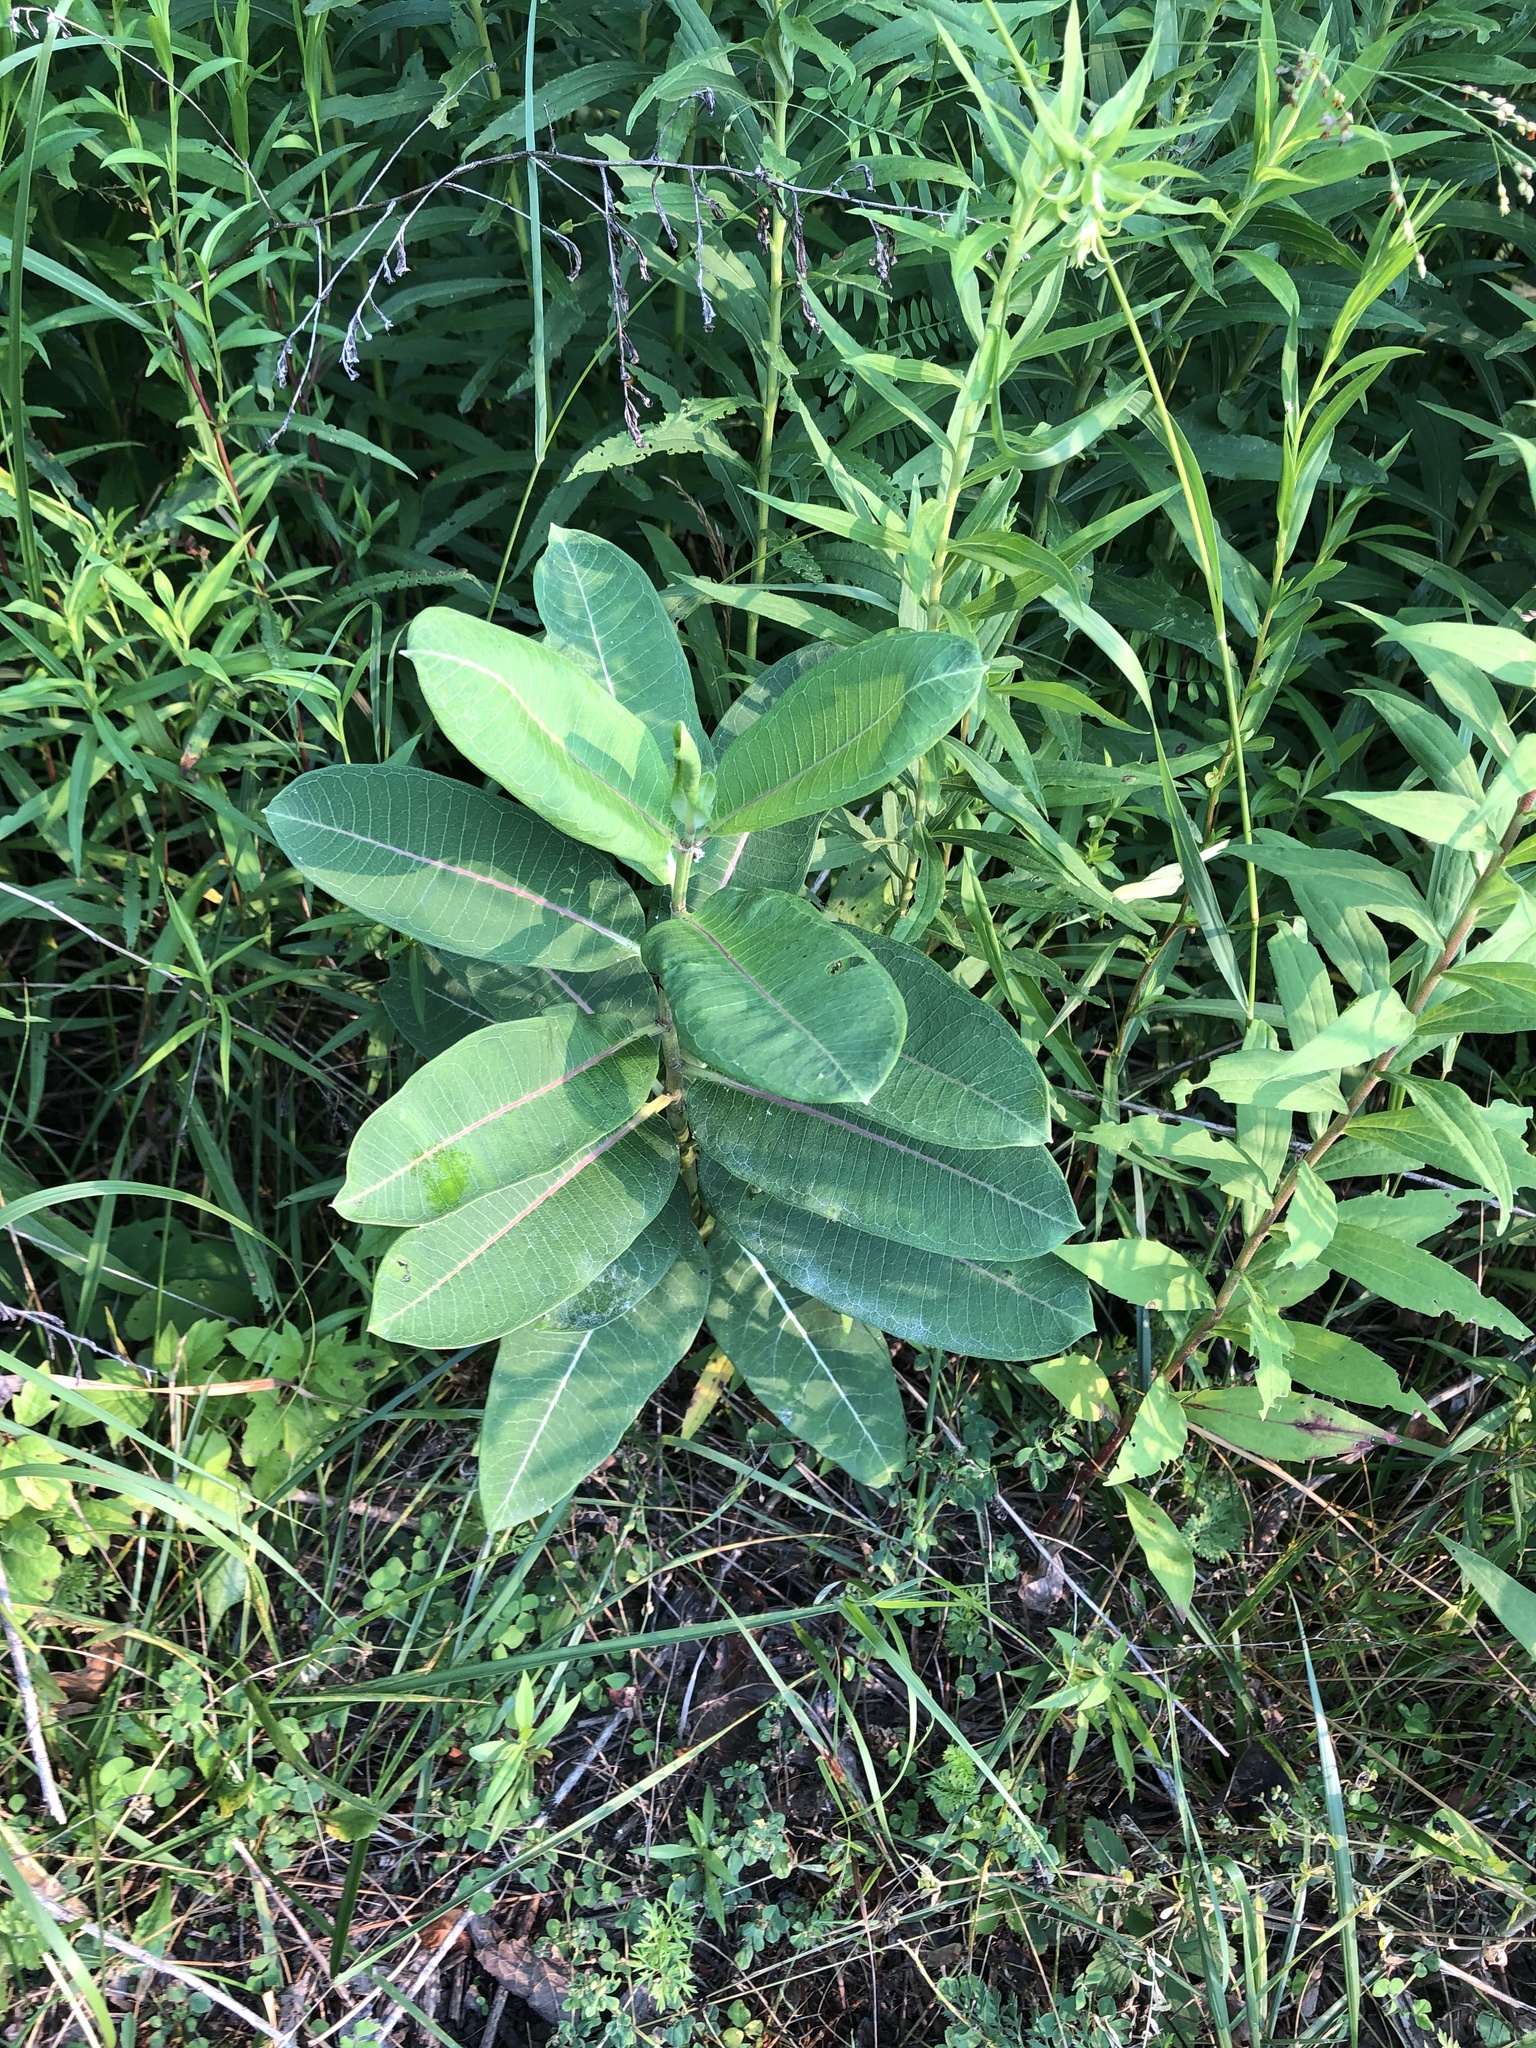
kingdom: Plantae
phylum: Tracheophyta
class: Magnoliopsida
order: Gentianales
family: Apocynaceae
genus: Asclepias
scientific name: Asclepias syriaca
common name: Common milkweed
